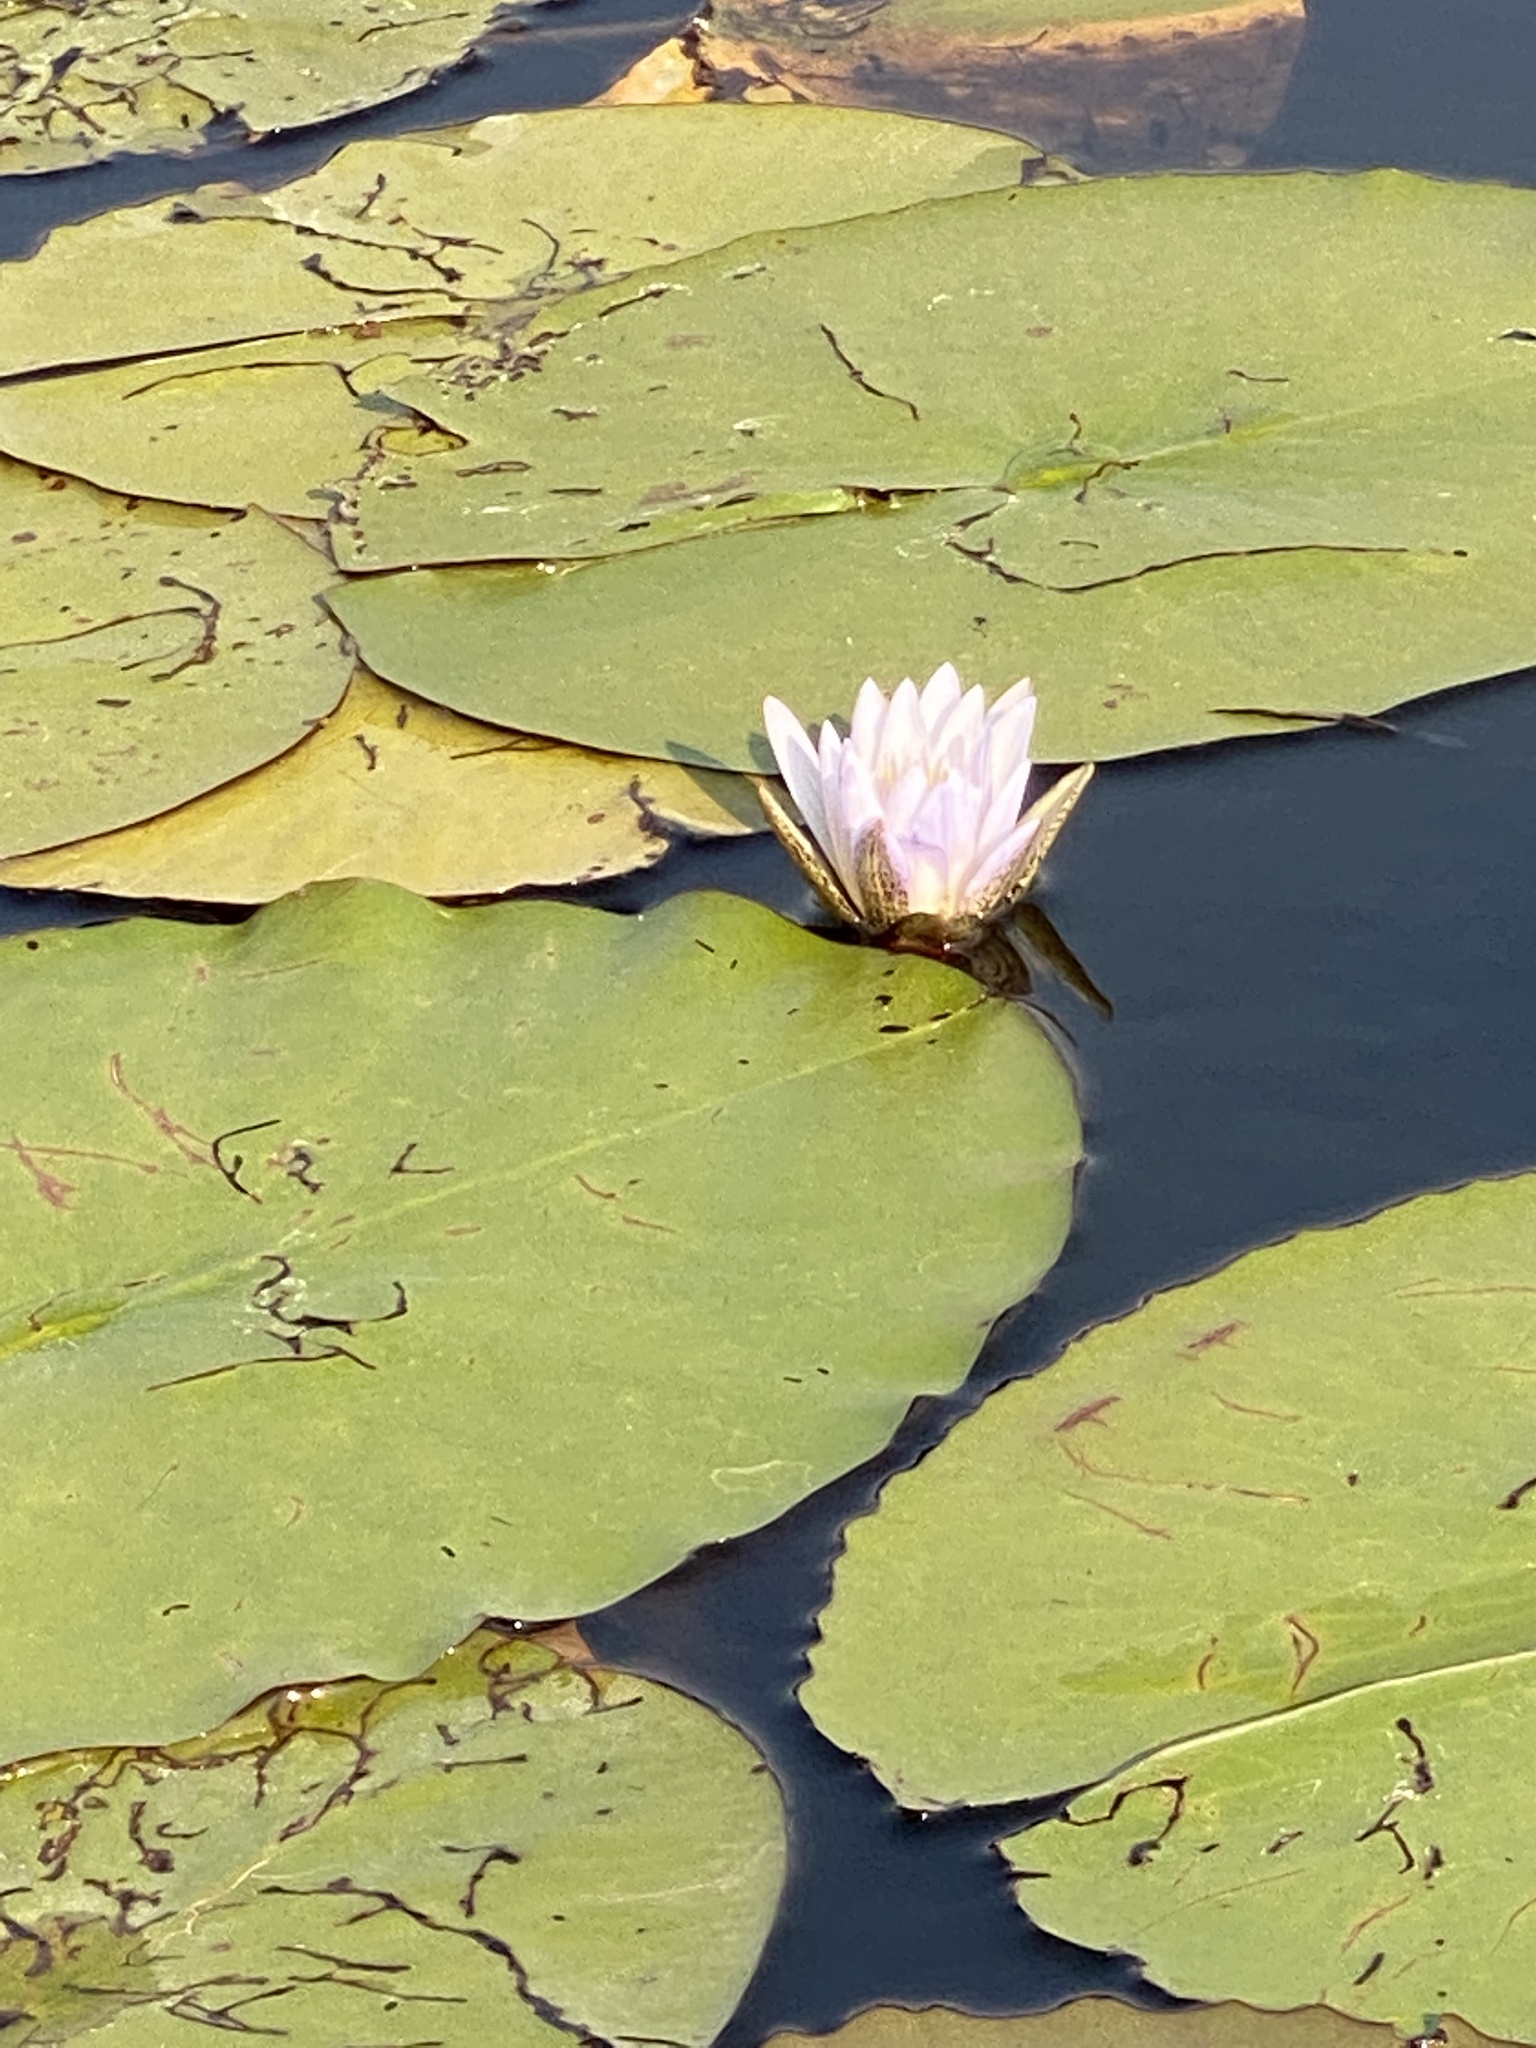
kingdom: Plantae
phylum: Tracheophyta
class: Magnoliopsida
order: Nymphaeales
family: Nymphaeaceae
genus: Nymphaea
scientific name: Nymphaea nouchali
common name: Blue lotus
